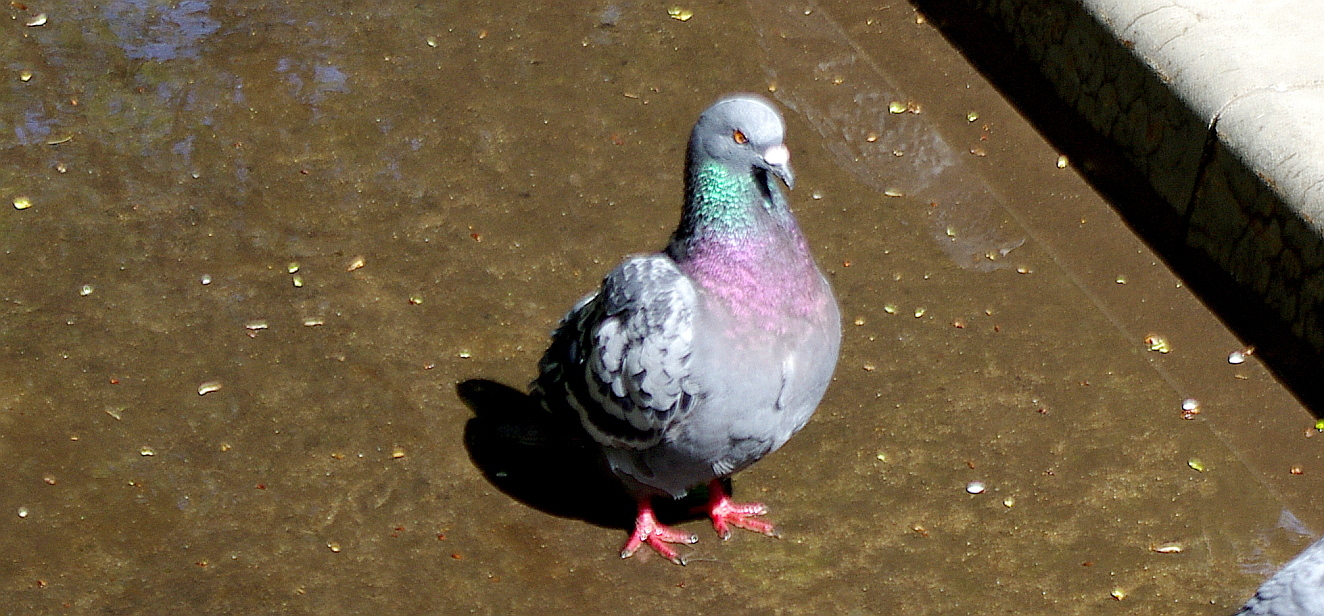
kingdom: Animalia
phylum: Chordata
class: Aves
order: Columbiformes
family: Columbidae
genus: Columba
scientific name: Columba livia
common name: Rock pigeon
